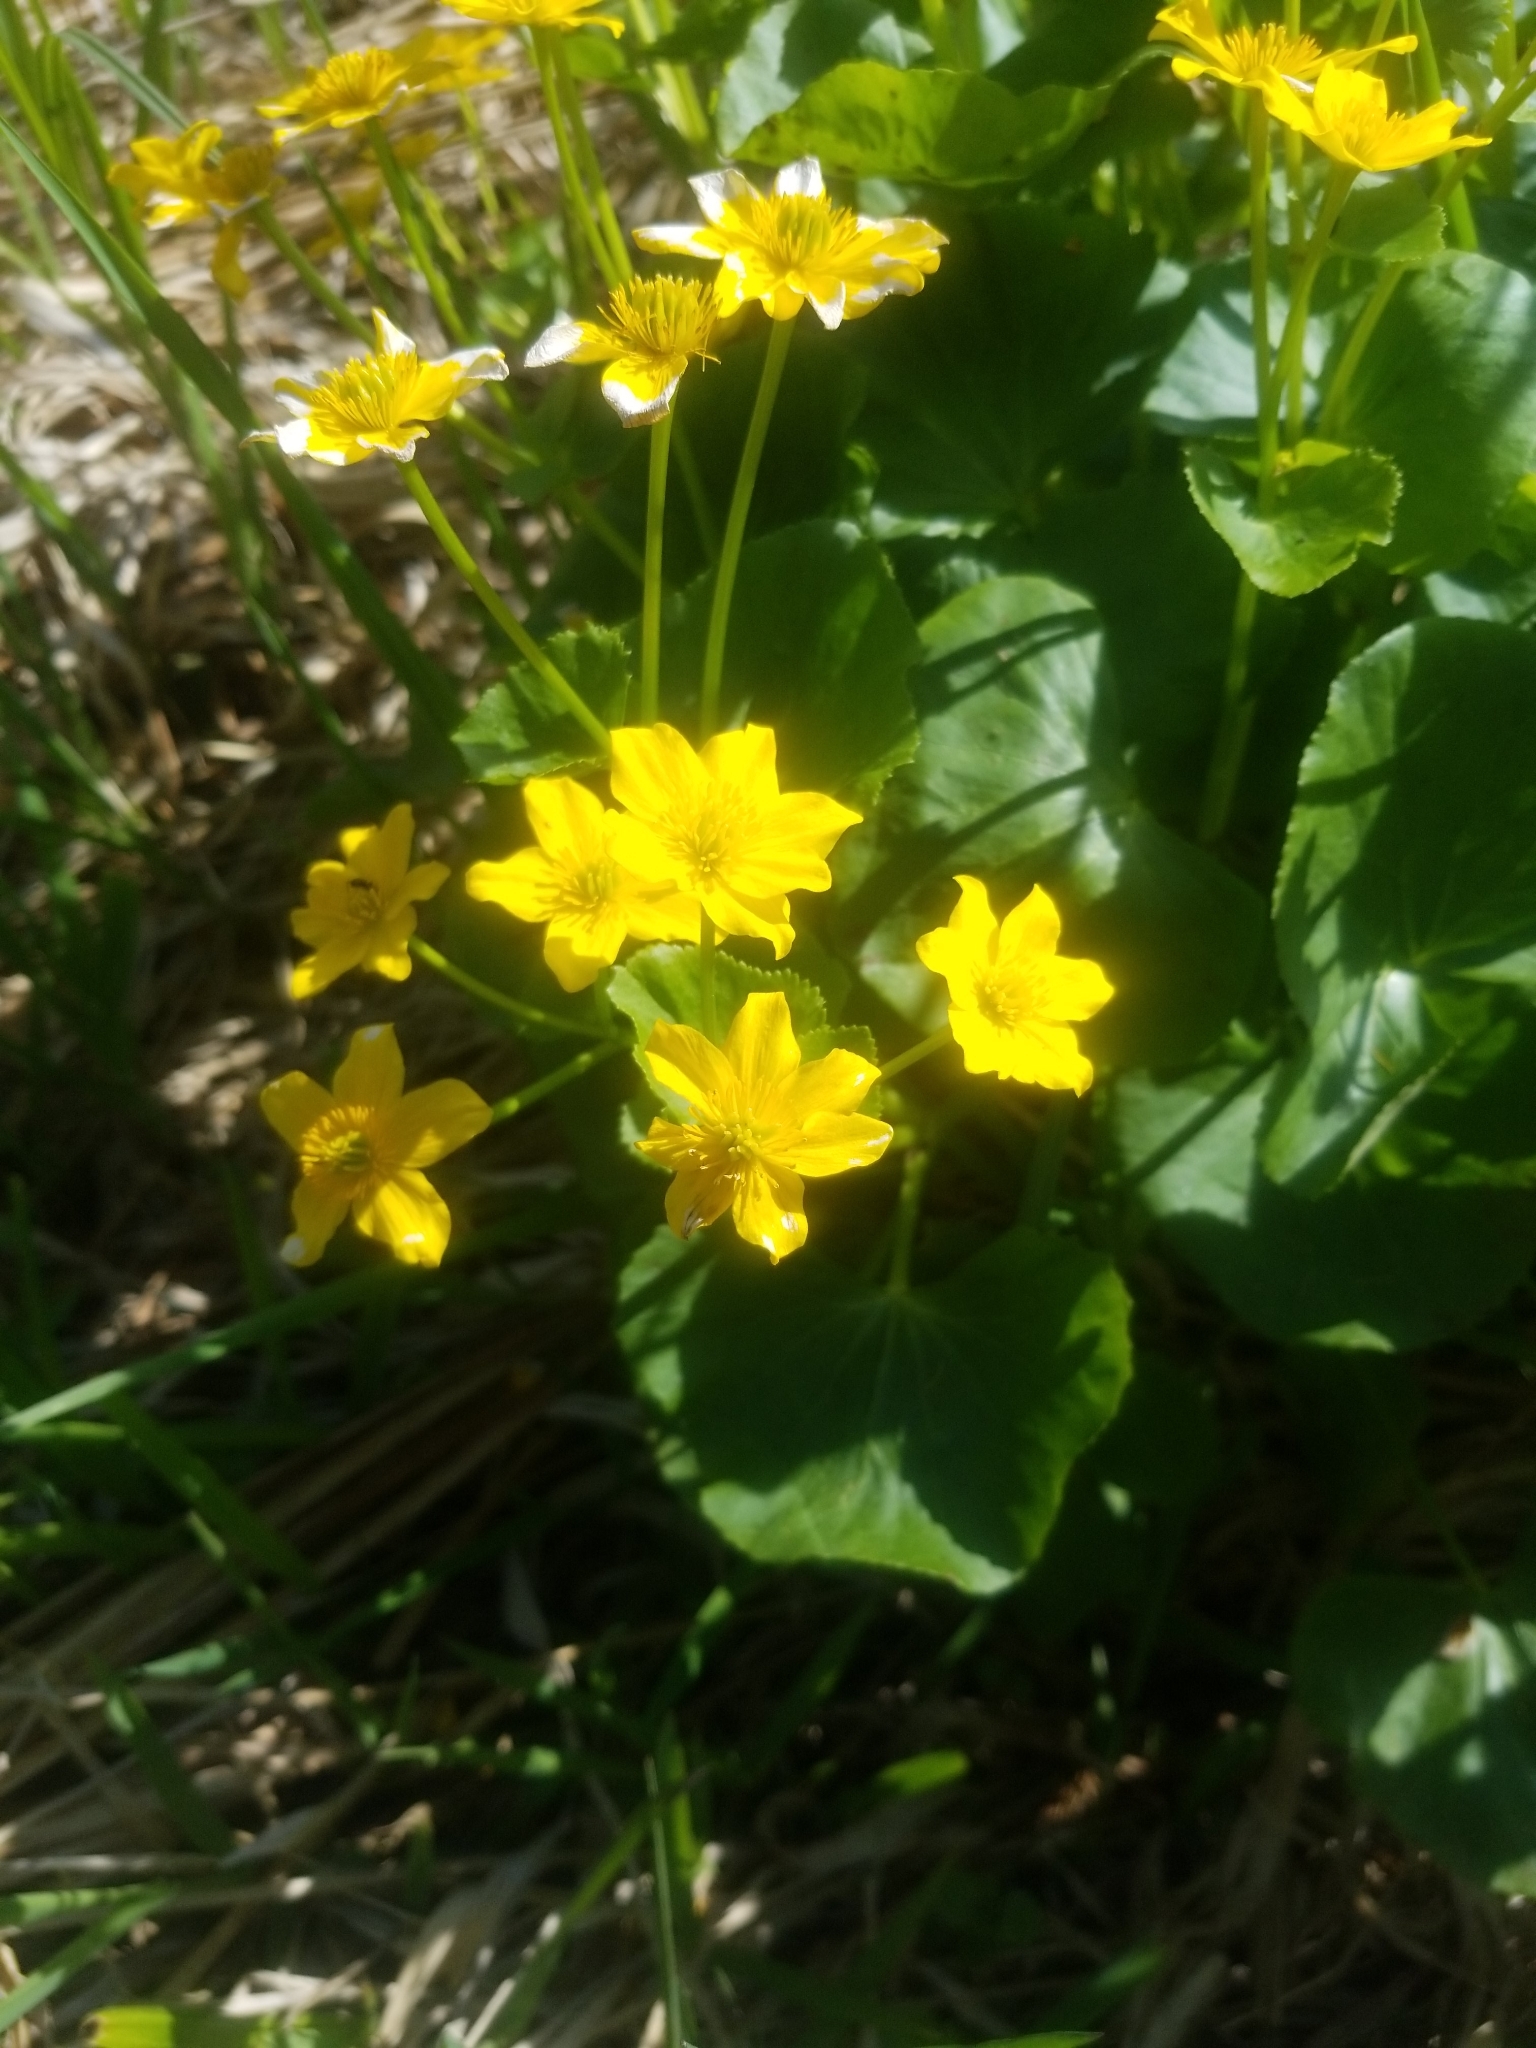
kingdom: Plantae
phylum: Tracheophyta
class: Magnoliopsida
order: Ranunculales
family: Ranunculaceae
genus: Caltha
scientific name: Caltha palustris
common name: Marsh marigold
